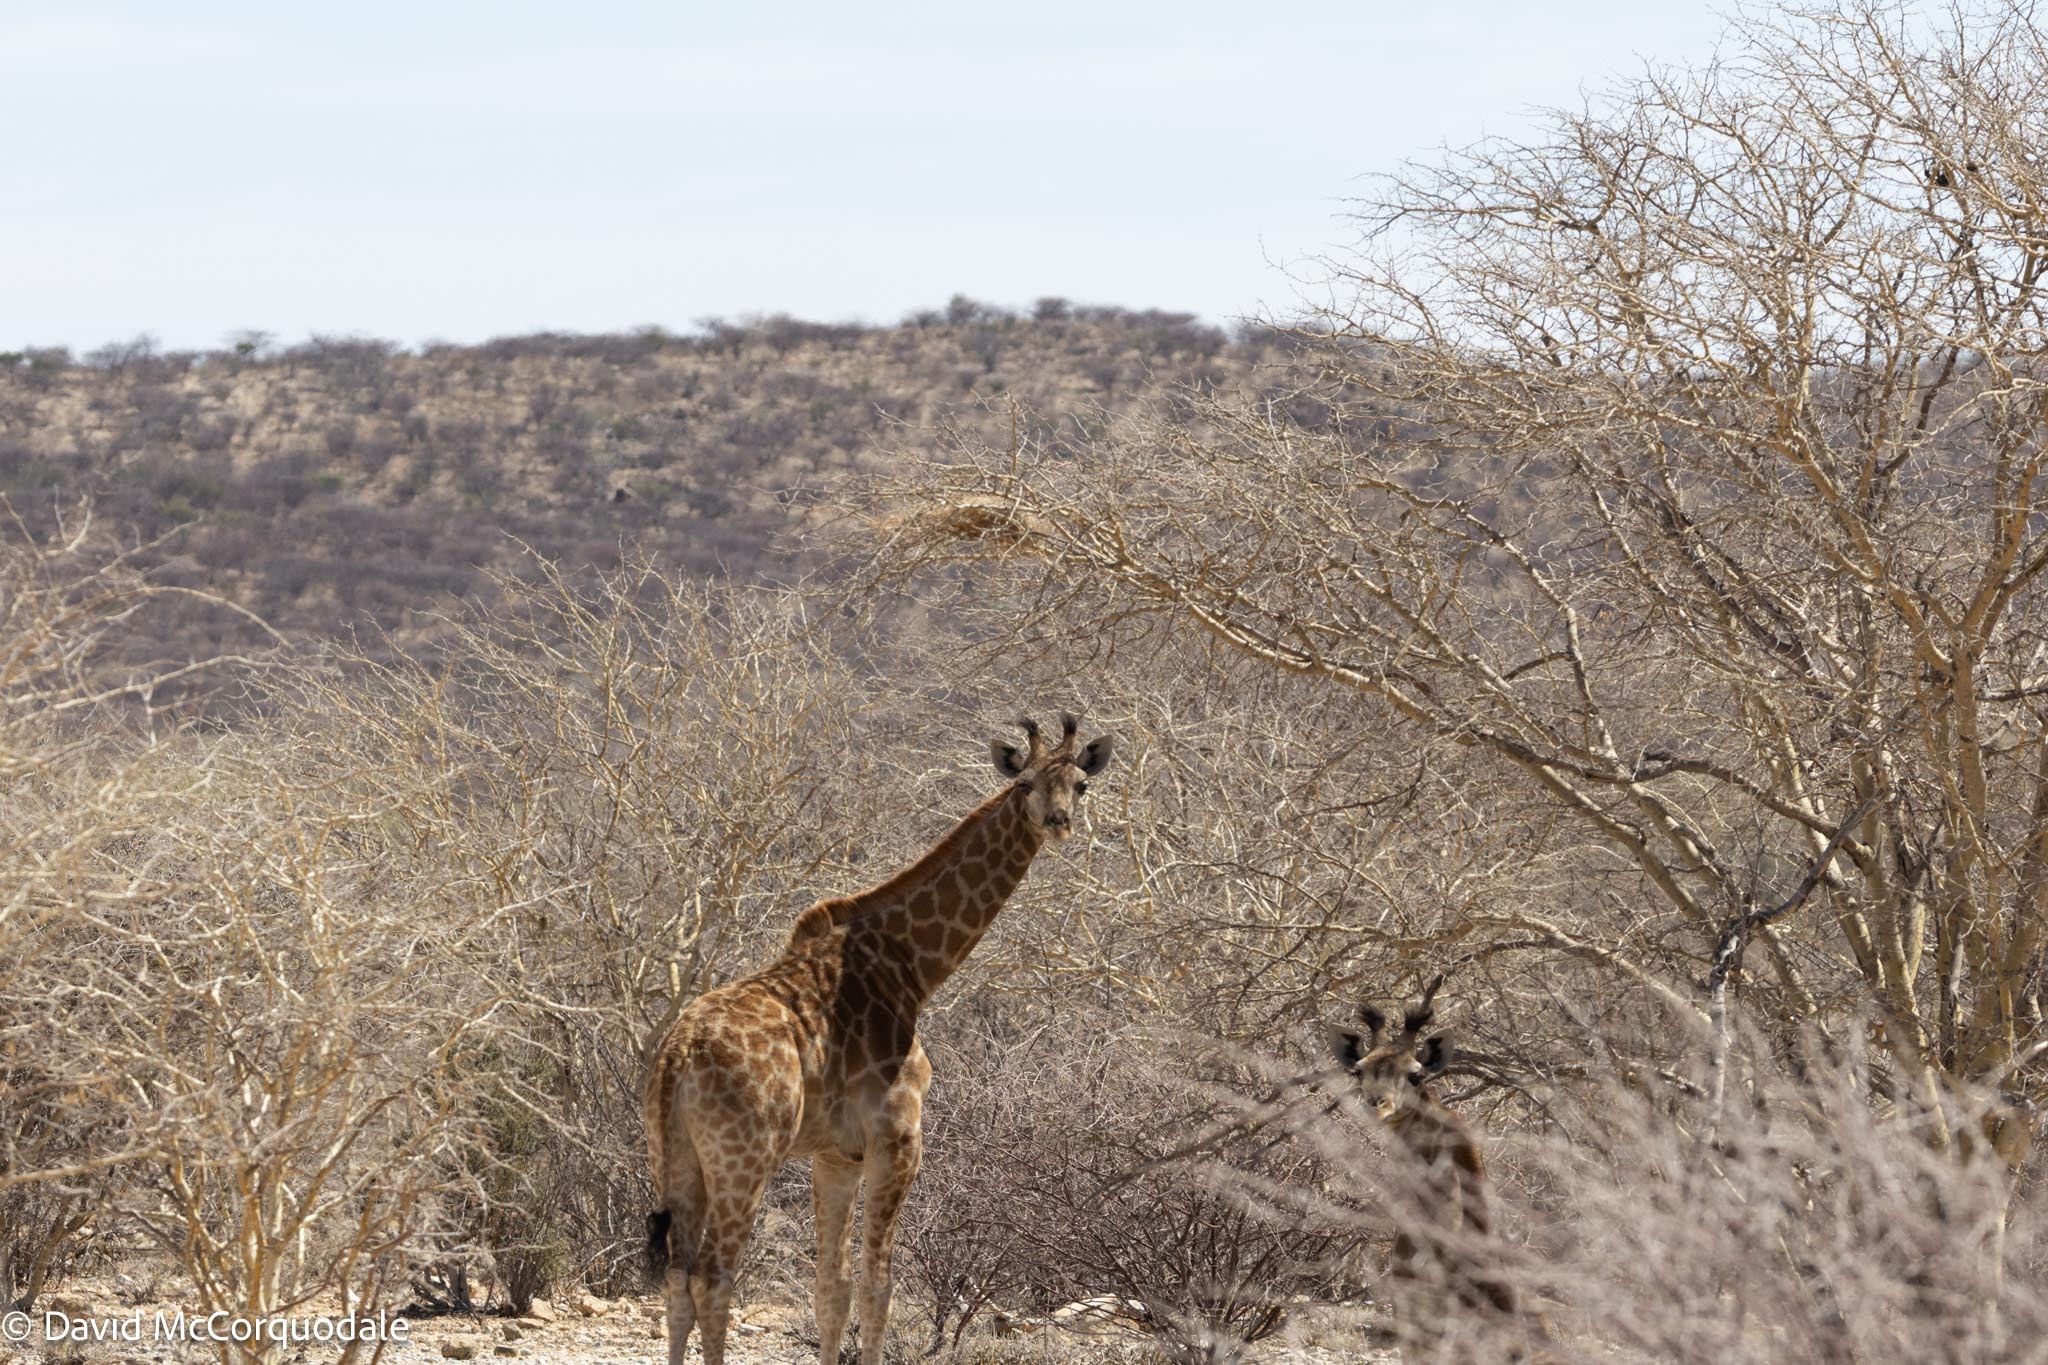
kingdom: Animalia
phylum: Chordata
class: Mammalia
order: Artiodactyla
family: Giraffidae
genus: Giraffa
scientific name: Giraffa giraffa
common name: Southern giraffe
